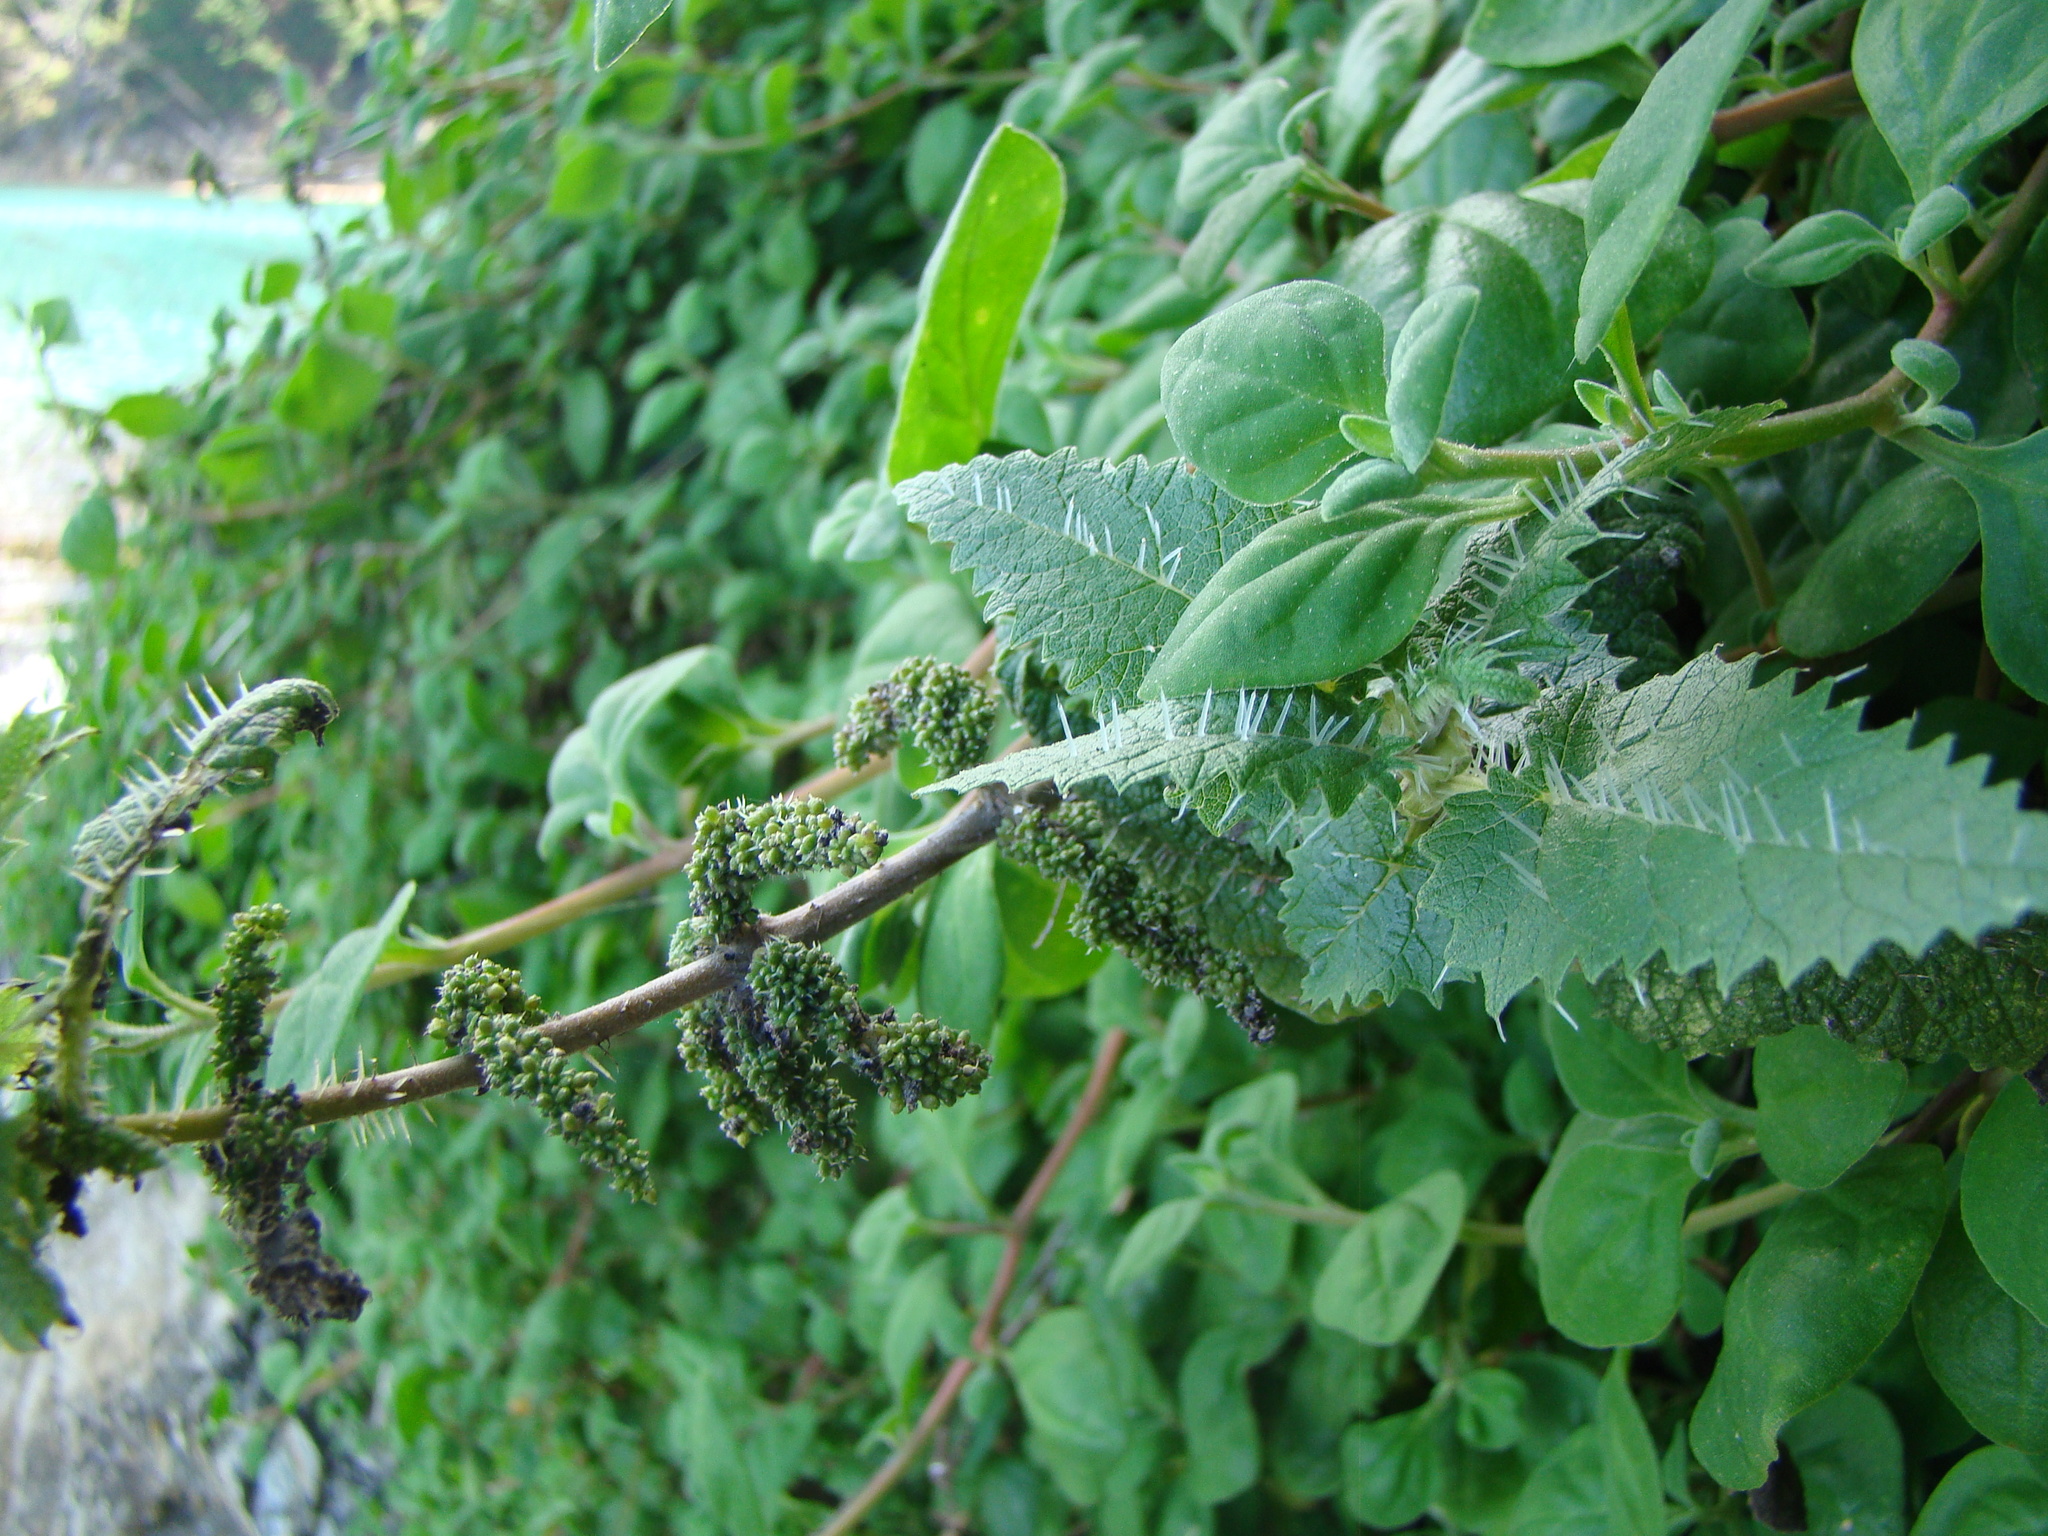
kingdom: Plantae
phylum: Tracheophyta
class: Magnoliopsida
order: Rosales
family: Urticaceae
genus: Urtica
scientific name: Urtica ferox
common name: Tree nettle
